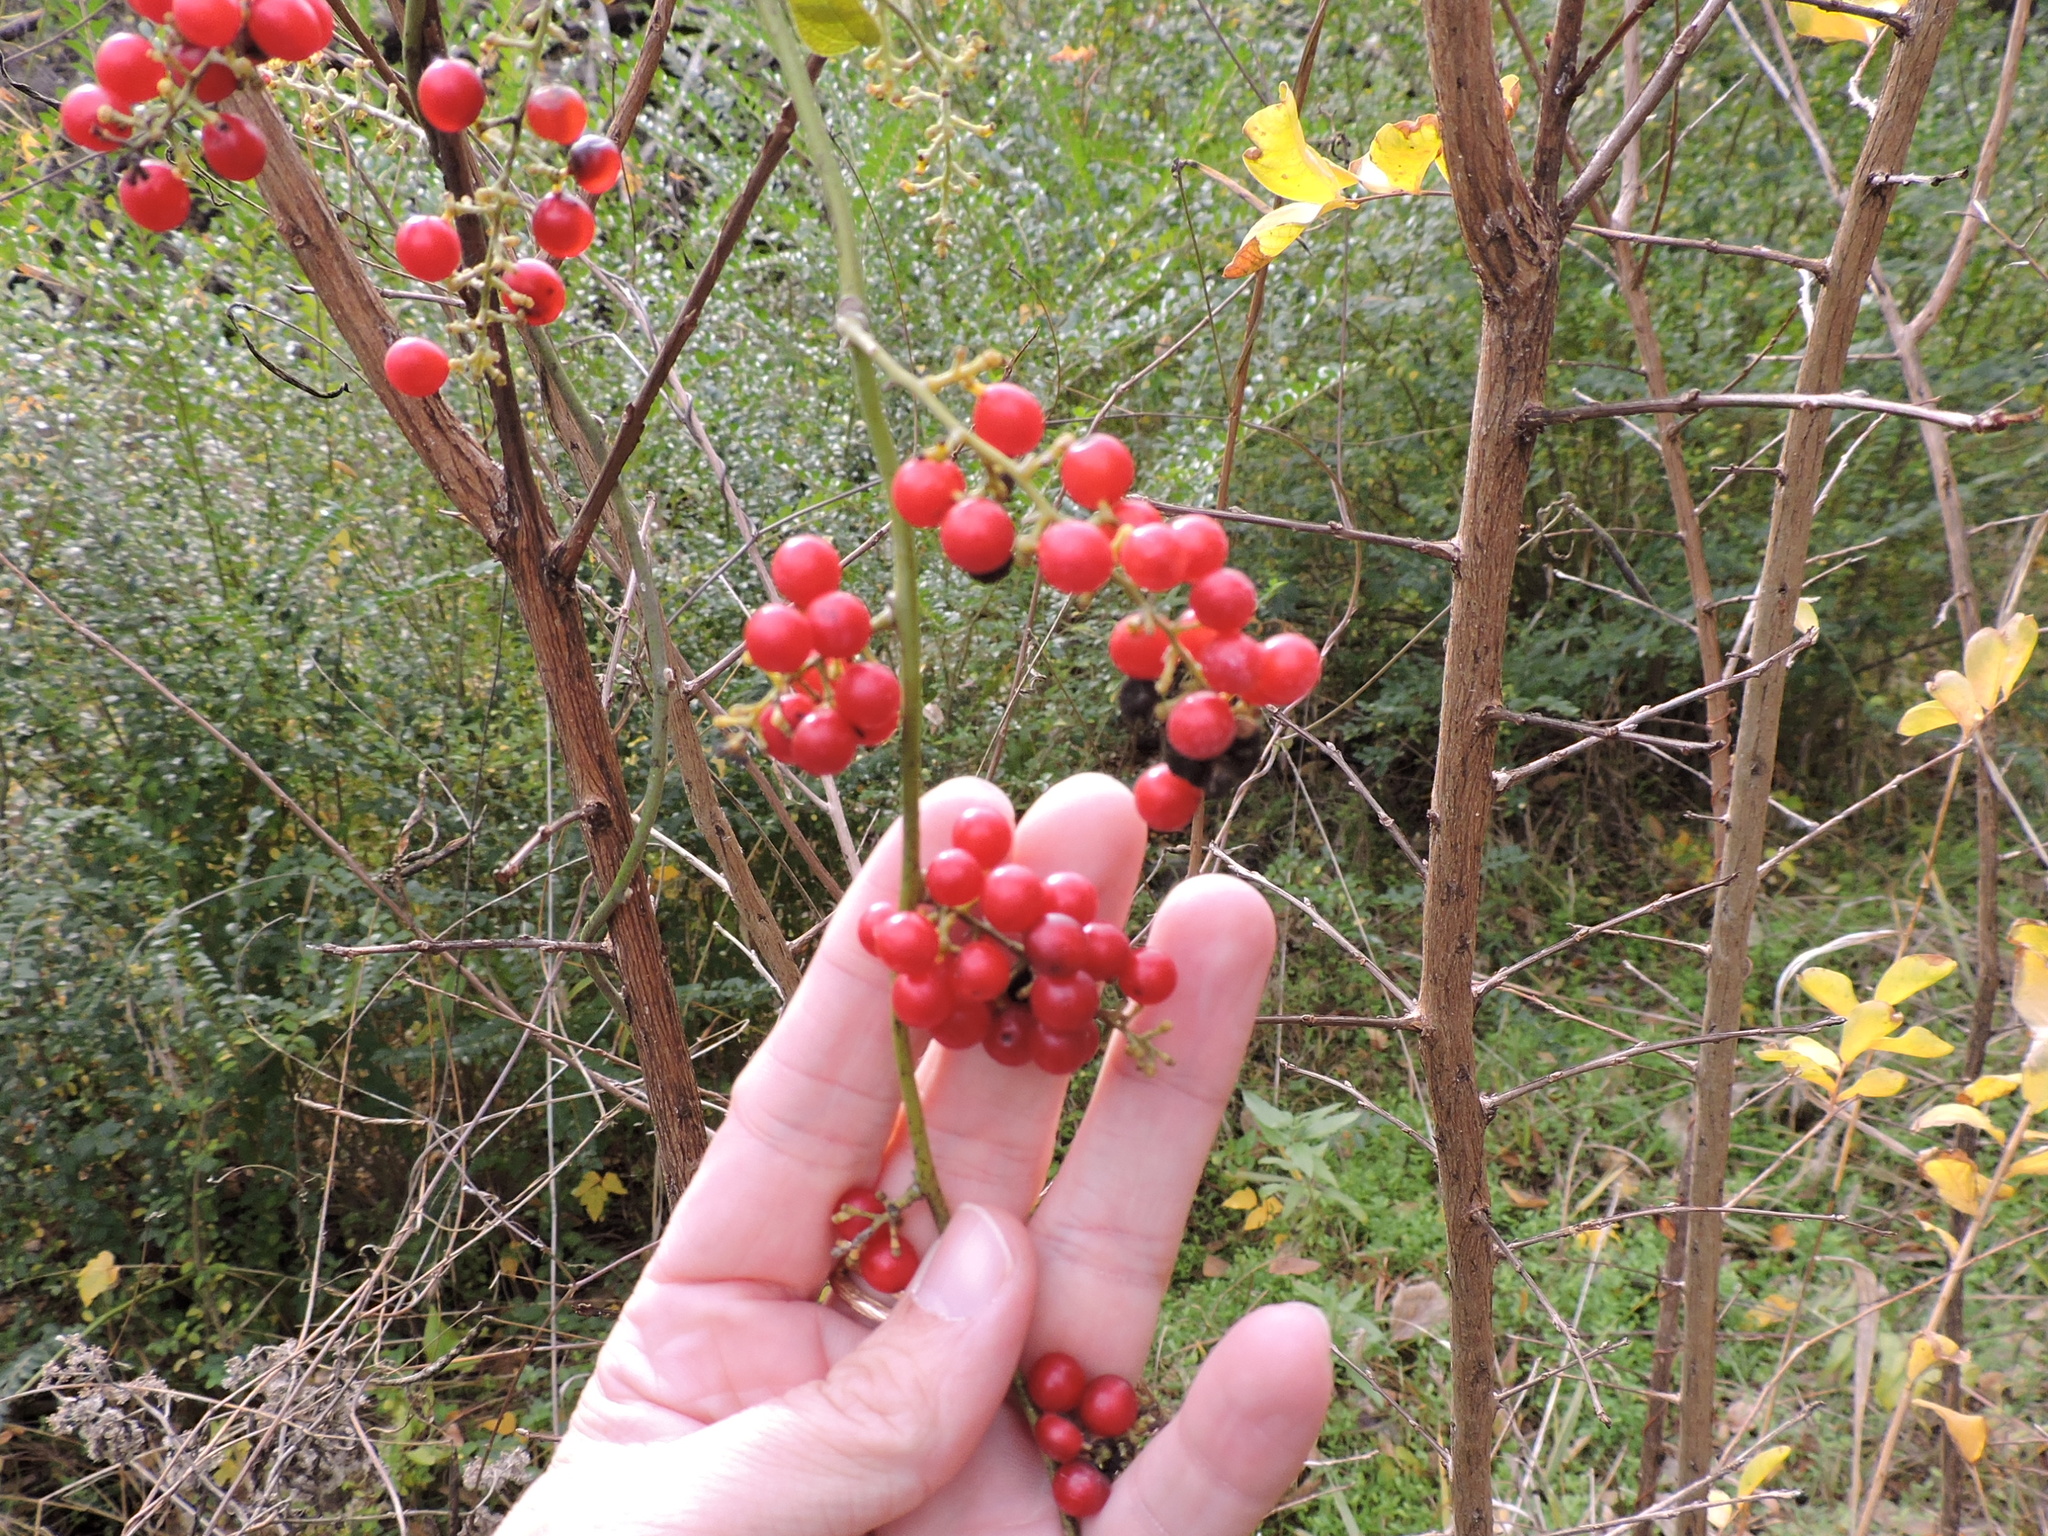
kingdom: Plantae
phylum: Tracheophyta
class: Magnoliopsida
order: Ranunculales
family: Menispermaceae
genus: Cocculus
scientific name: Cocculus carolinus
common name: Carolina moonseed
